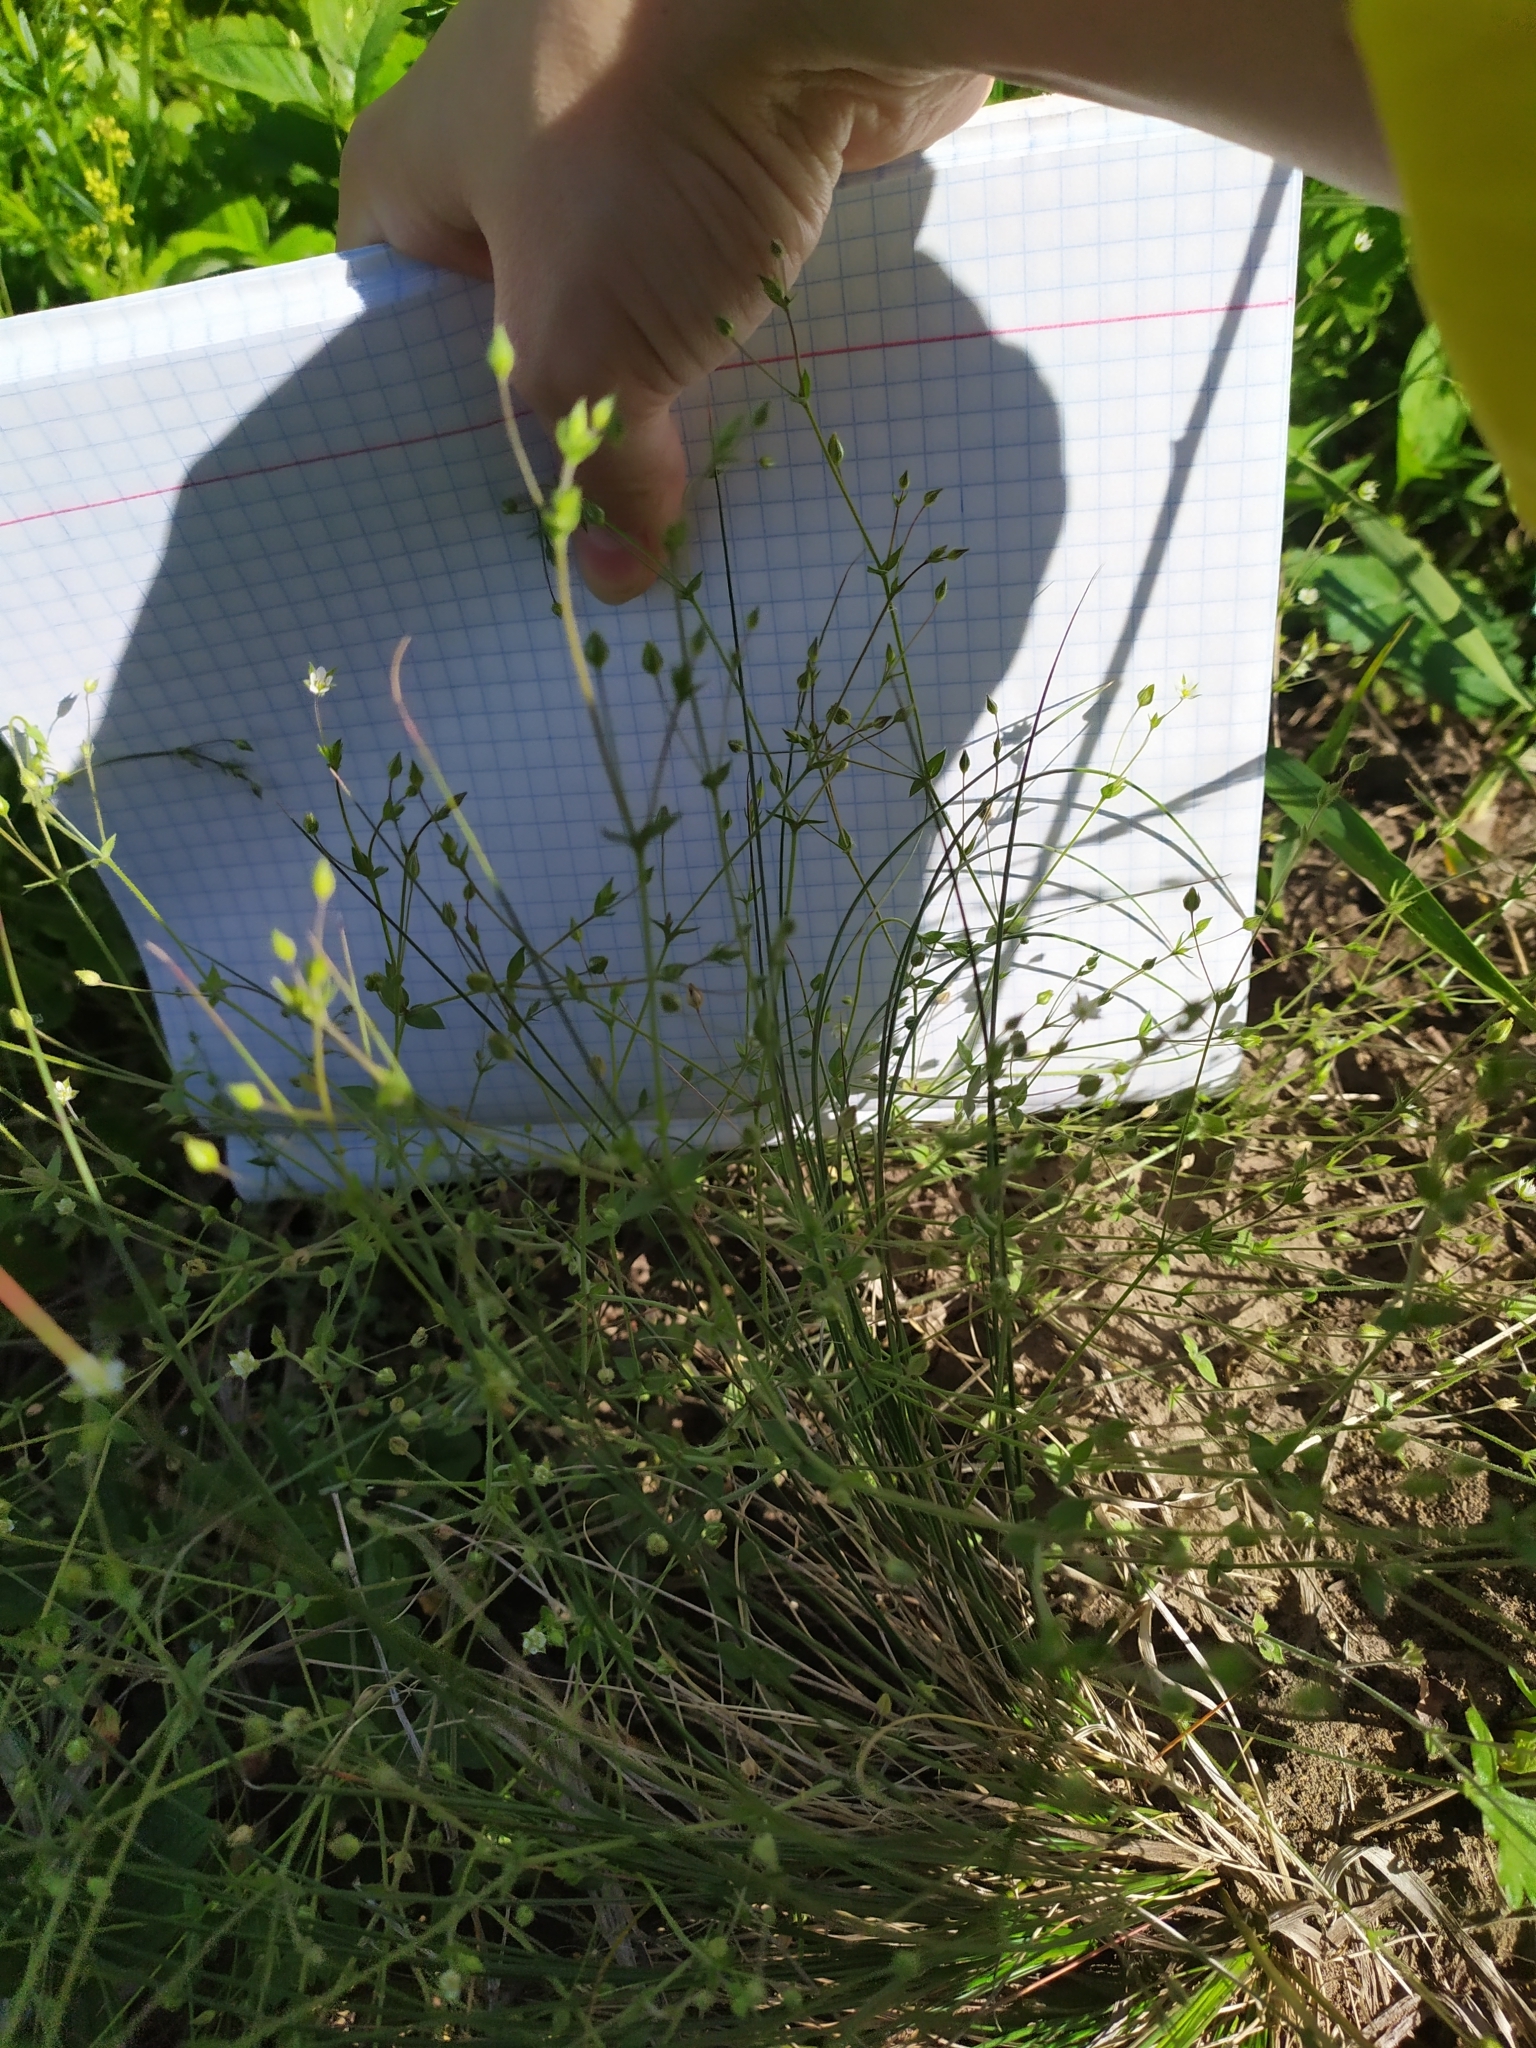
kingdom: Plantae
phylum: Tracheophyta
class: Magnoliopsida
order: Caryophyllales
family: Caryophyllaceae
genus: Arenaria
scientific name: Arenaria serpyllifolia
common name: Thyme-leaved sandwort
